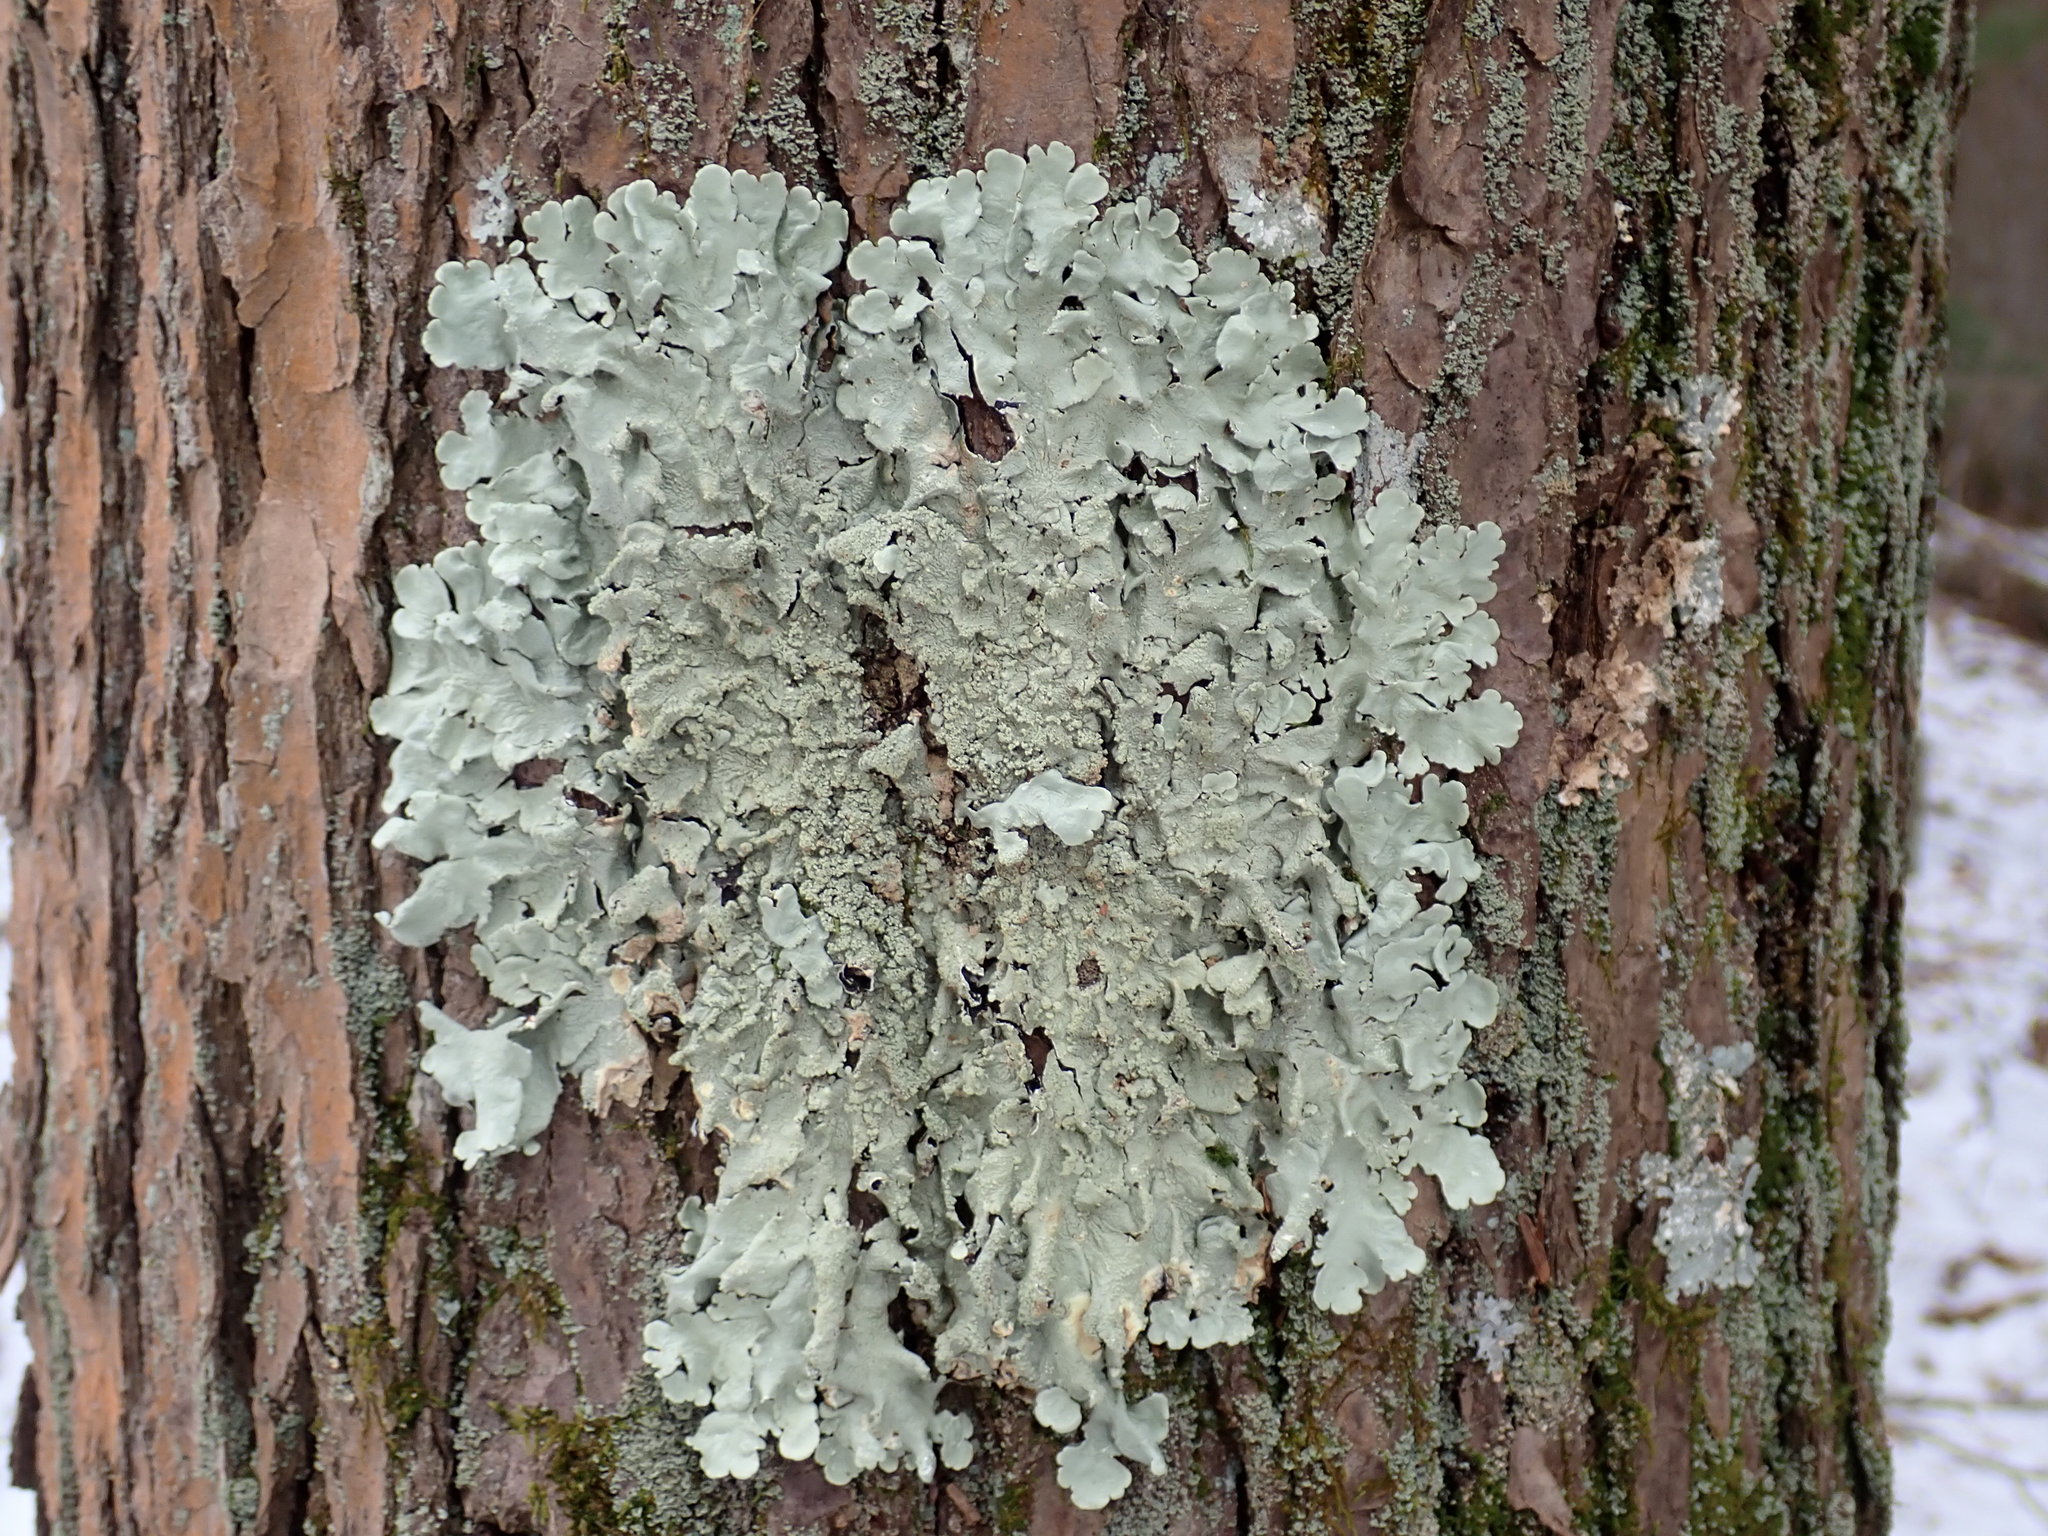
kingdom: Fungi
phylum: Ascomycota
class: Lecanoromycetes
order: Lecanorales
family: Parmeliaceae
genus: Flavoparmelia
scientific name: Flavoparmelia caperata
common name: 40-mile per hour lichen
